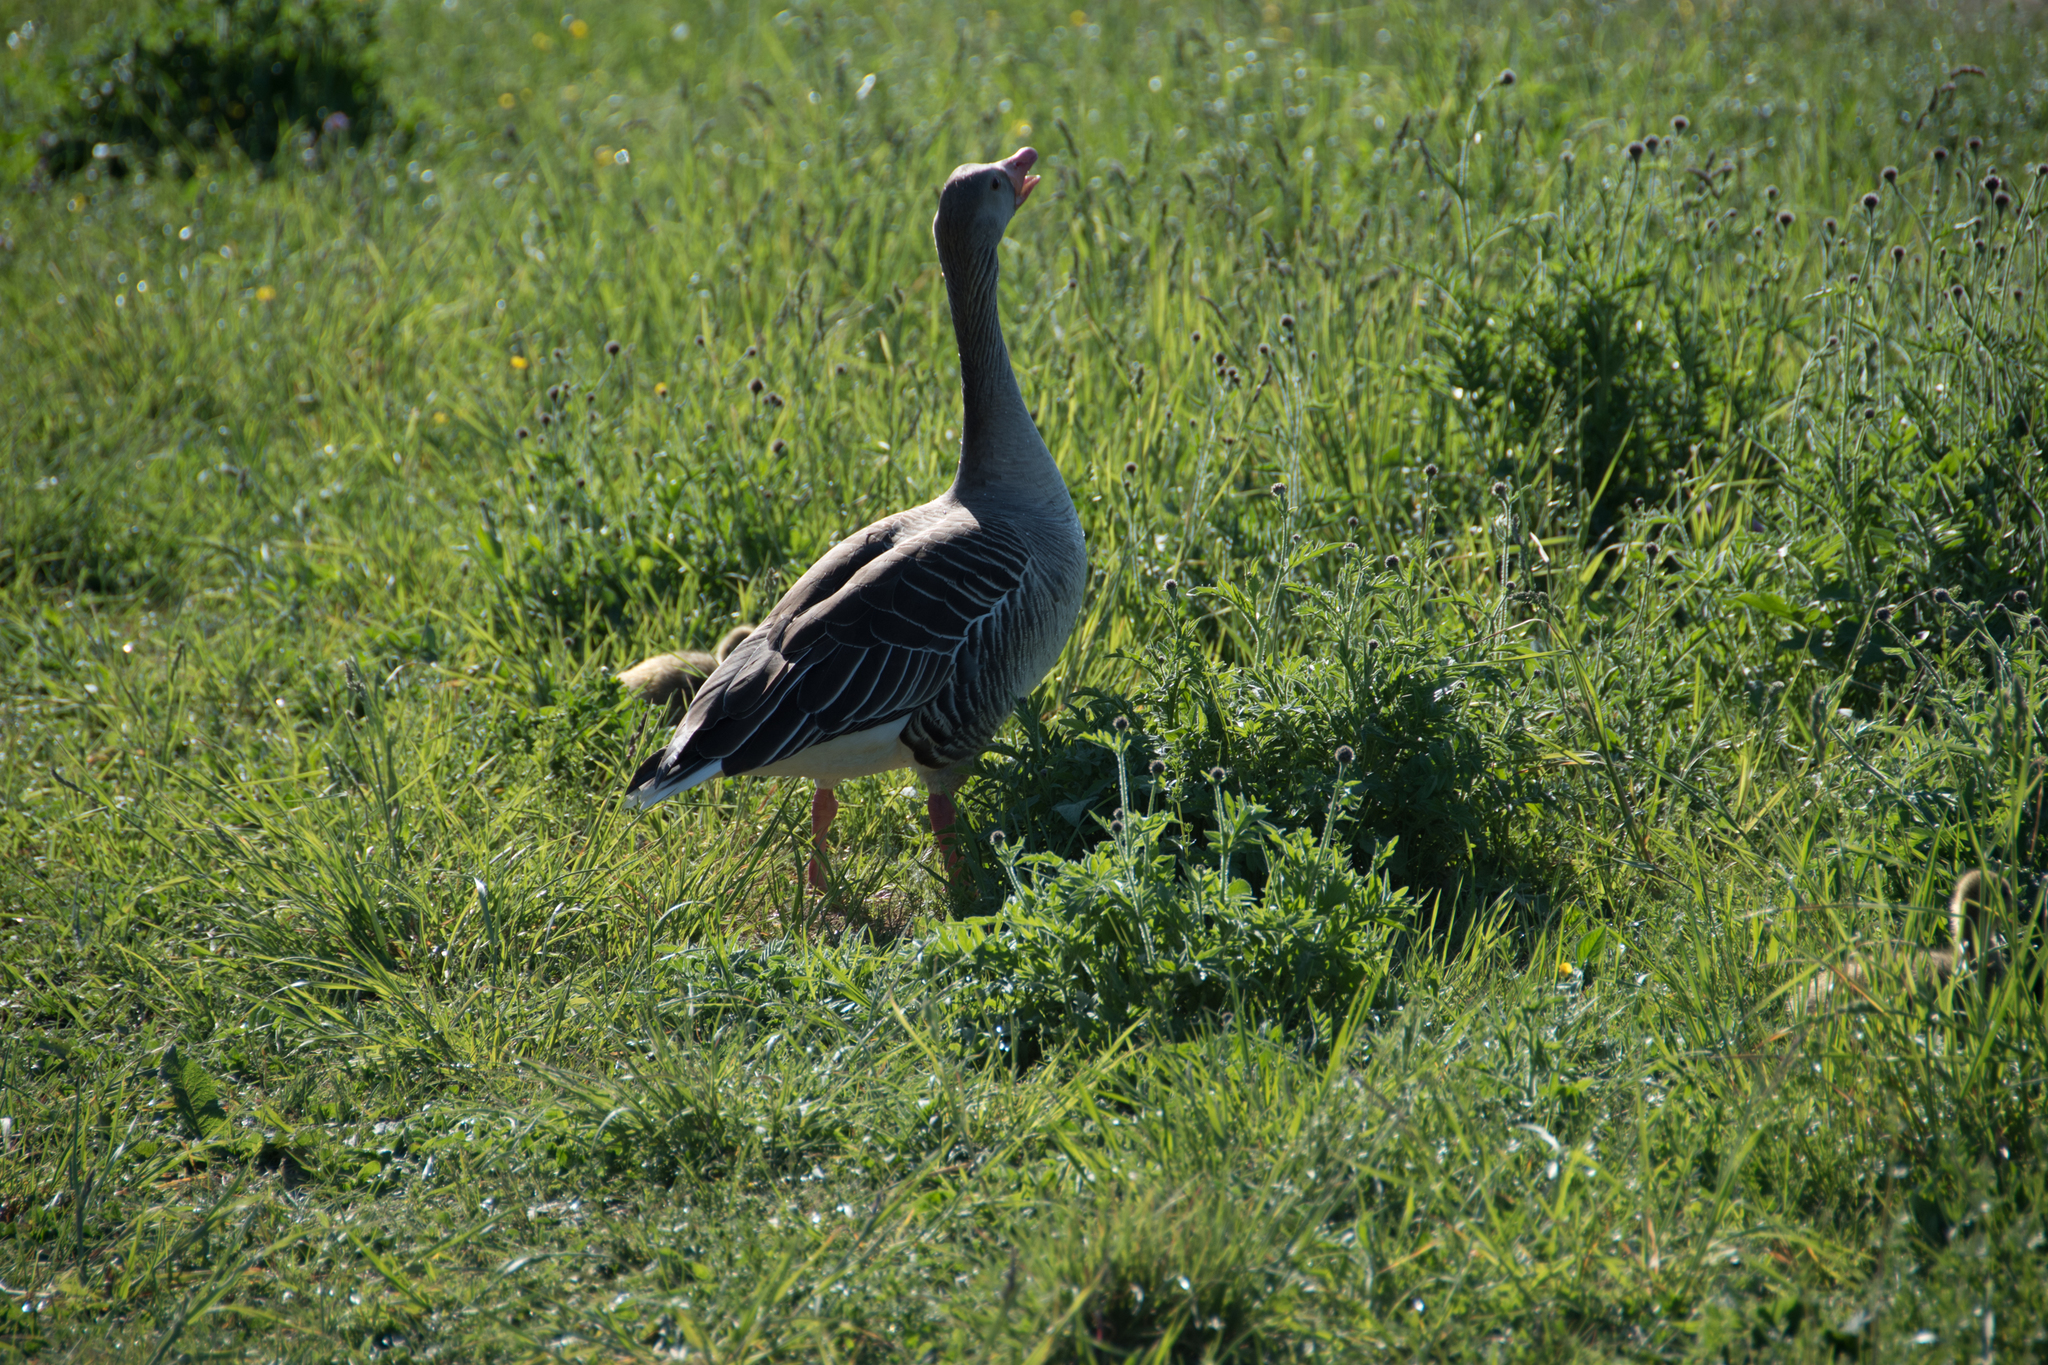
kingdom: Animalia
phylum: Chordata
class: Aves
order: Anseriformes
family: Anatidae
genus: Anser
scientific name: Anser anser
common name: Greylag goose
